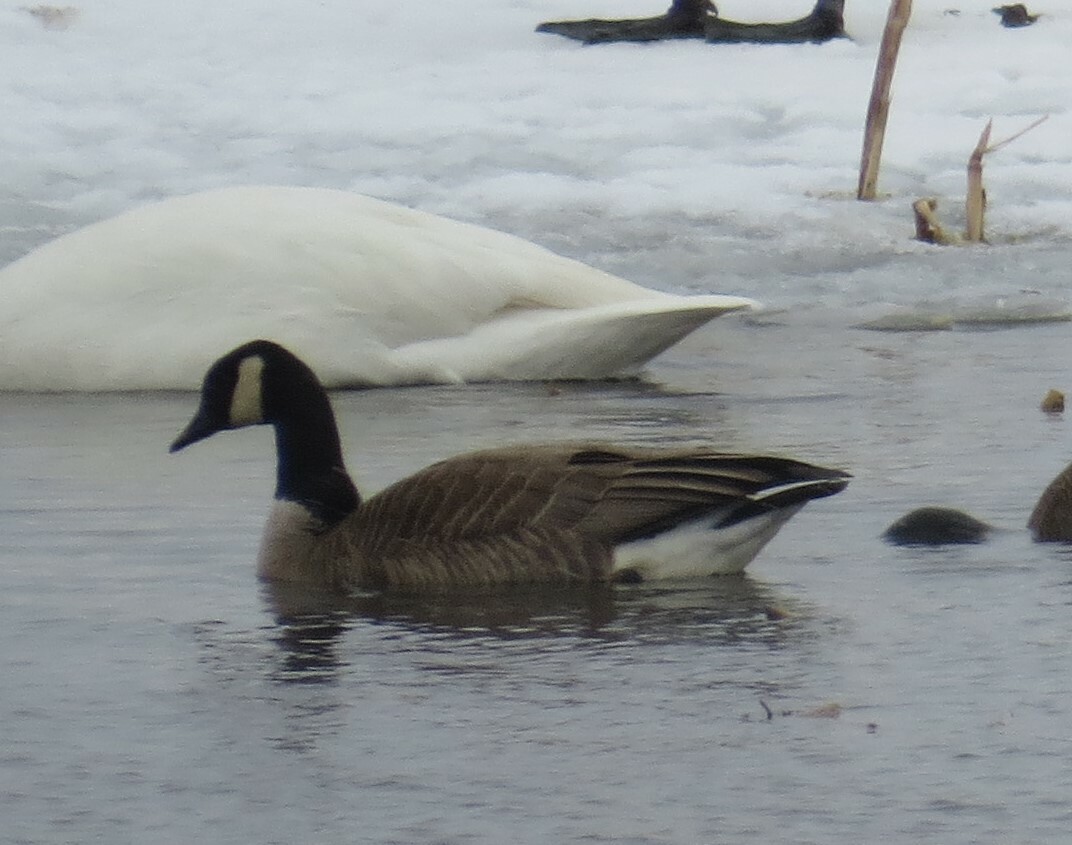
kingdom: Animalia
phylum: Chordata
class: Aves
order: Anseriformes
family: Anatidae
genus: Branta
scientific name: Branta canadensis
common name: Canada goose
